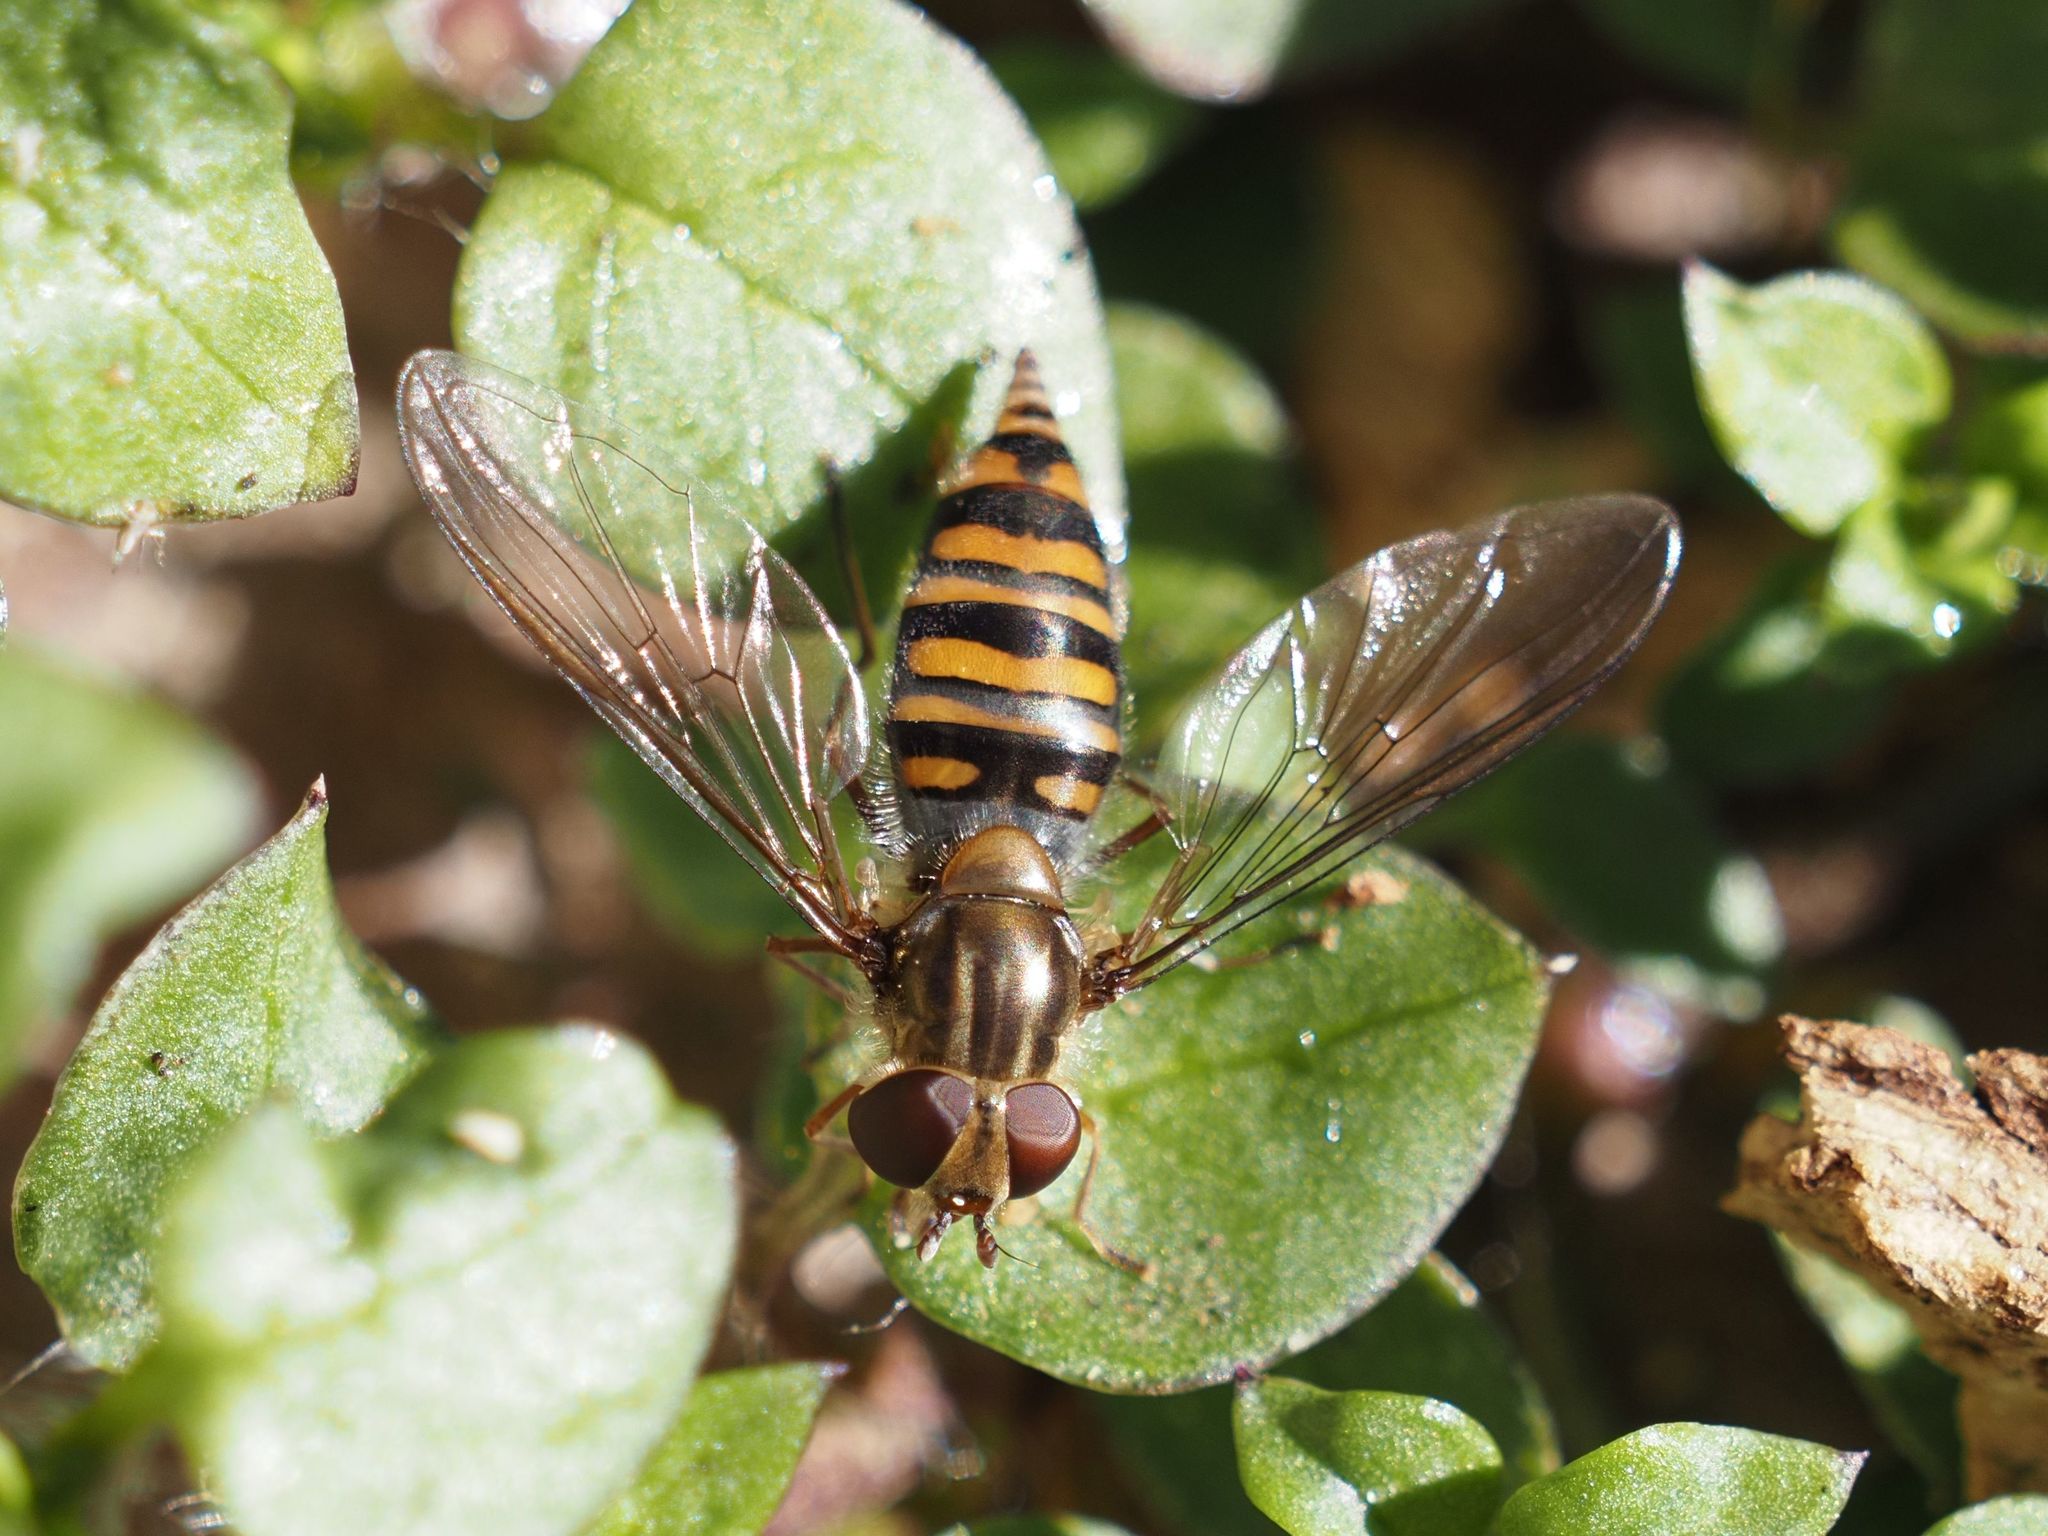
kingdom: Animalia
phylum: Arthropoda
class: Insecta
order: Diptera
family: Syrphidae
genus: Episyrphus
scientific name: Episyrphus balteatus
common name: Marmalade hoverfly
